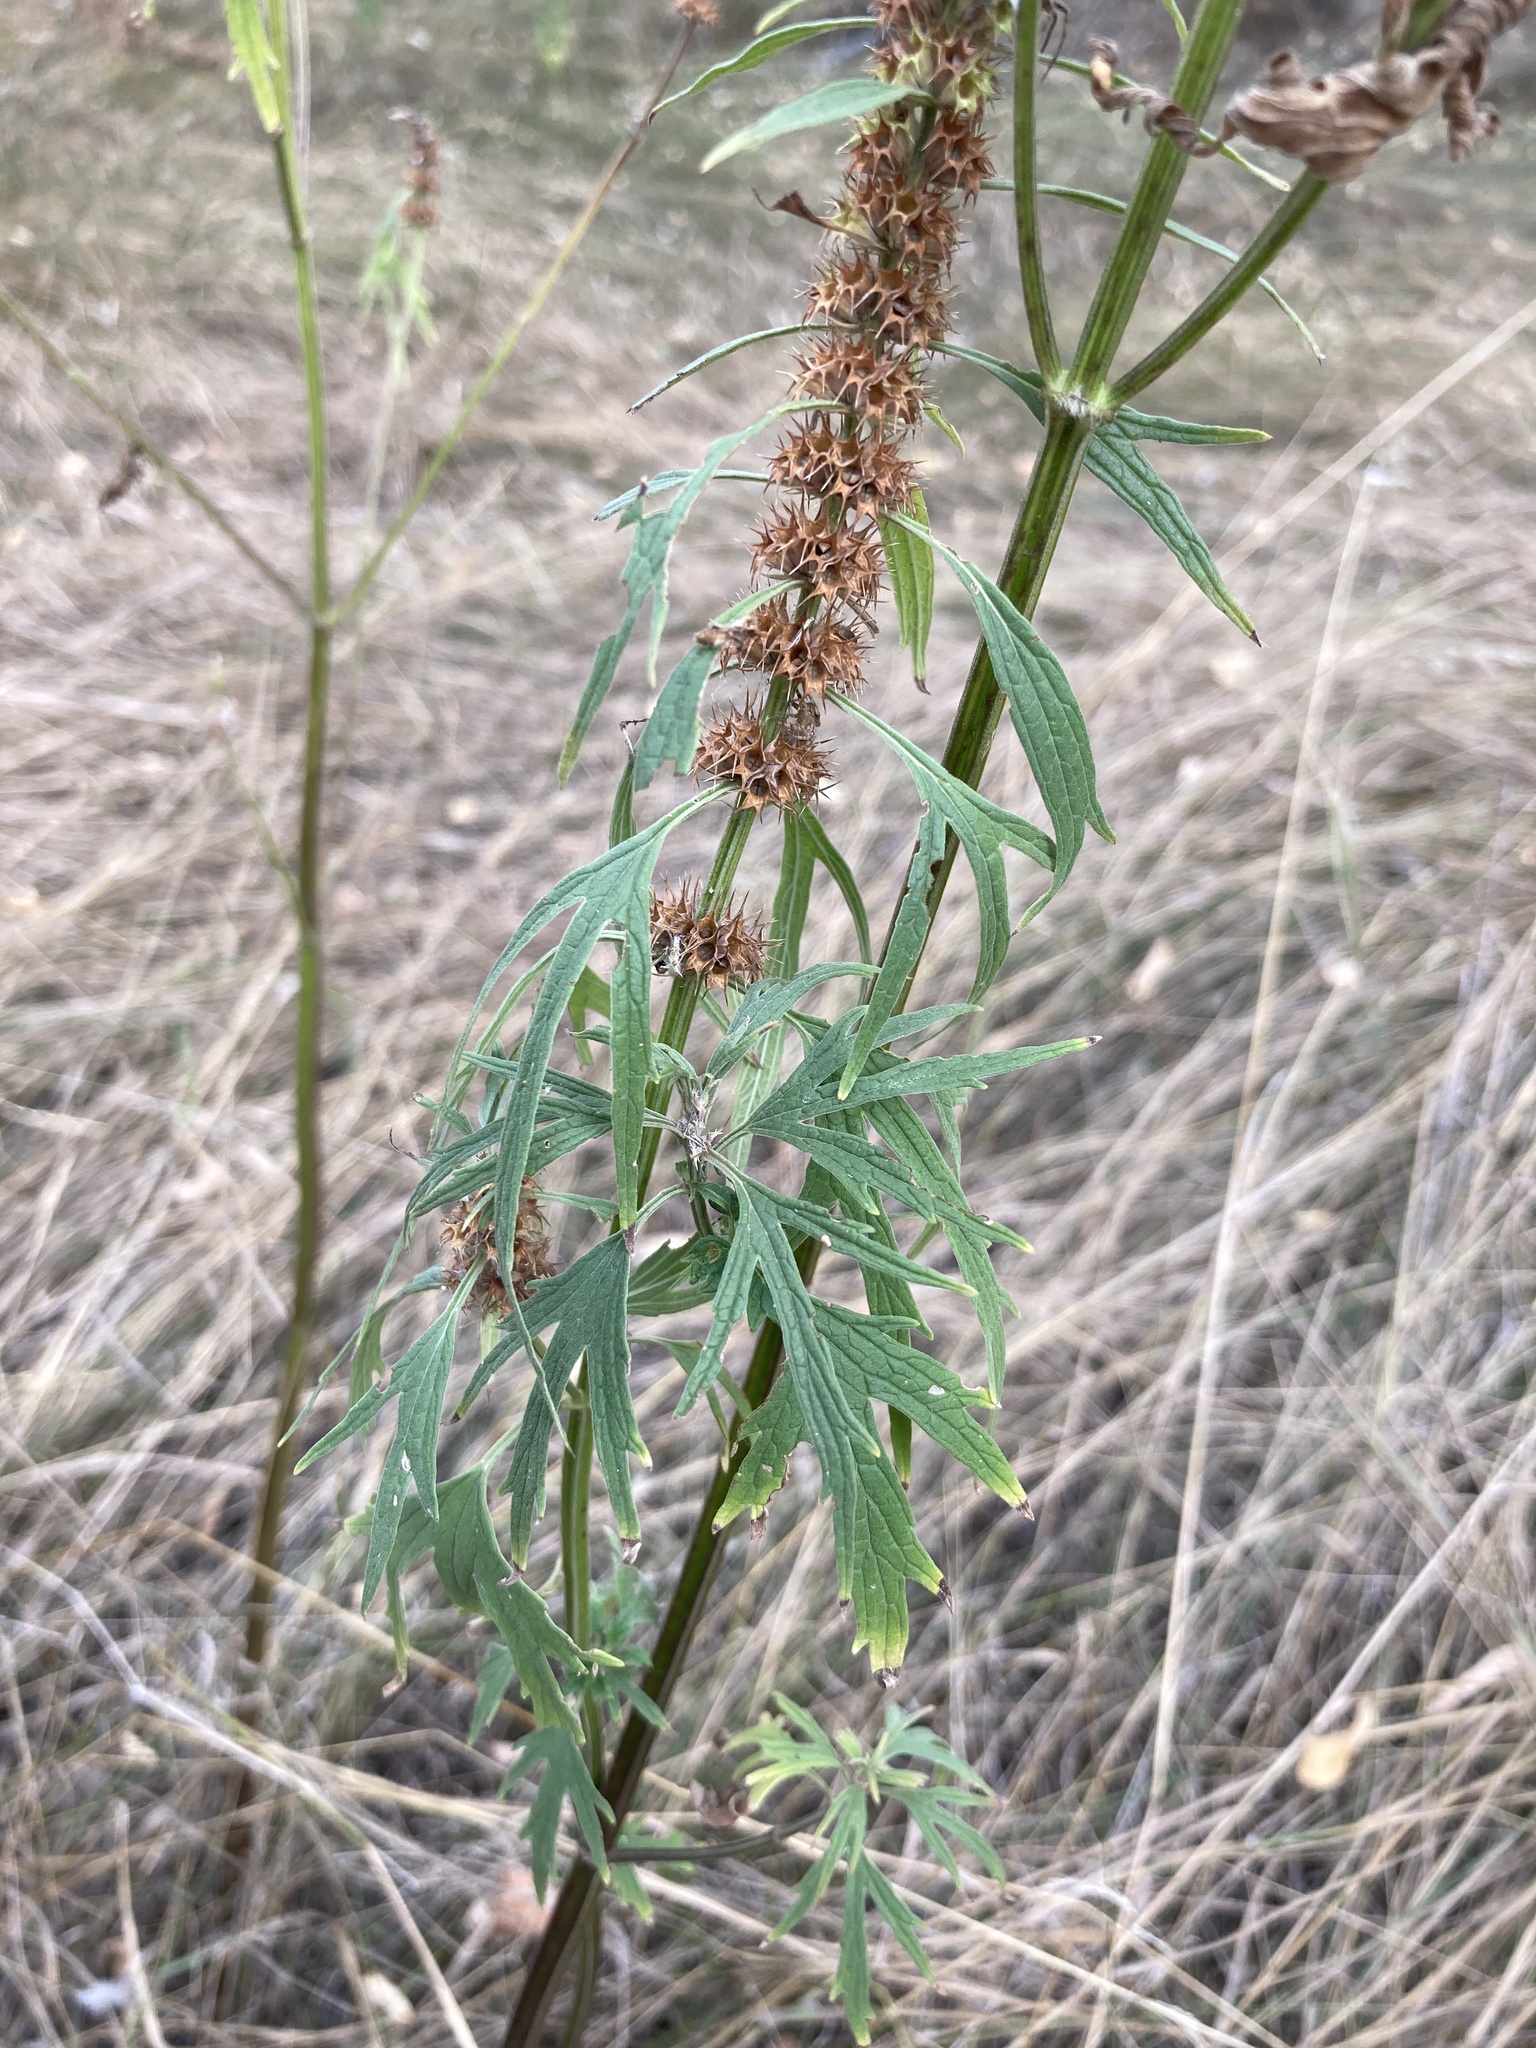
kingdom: Plantae
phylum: Tracheophyta
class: Magnoliopsida
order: Lamiales
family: Lamiaceae
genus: Leonurus
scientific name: Leonurus glaucescens
